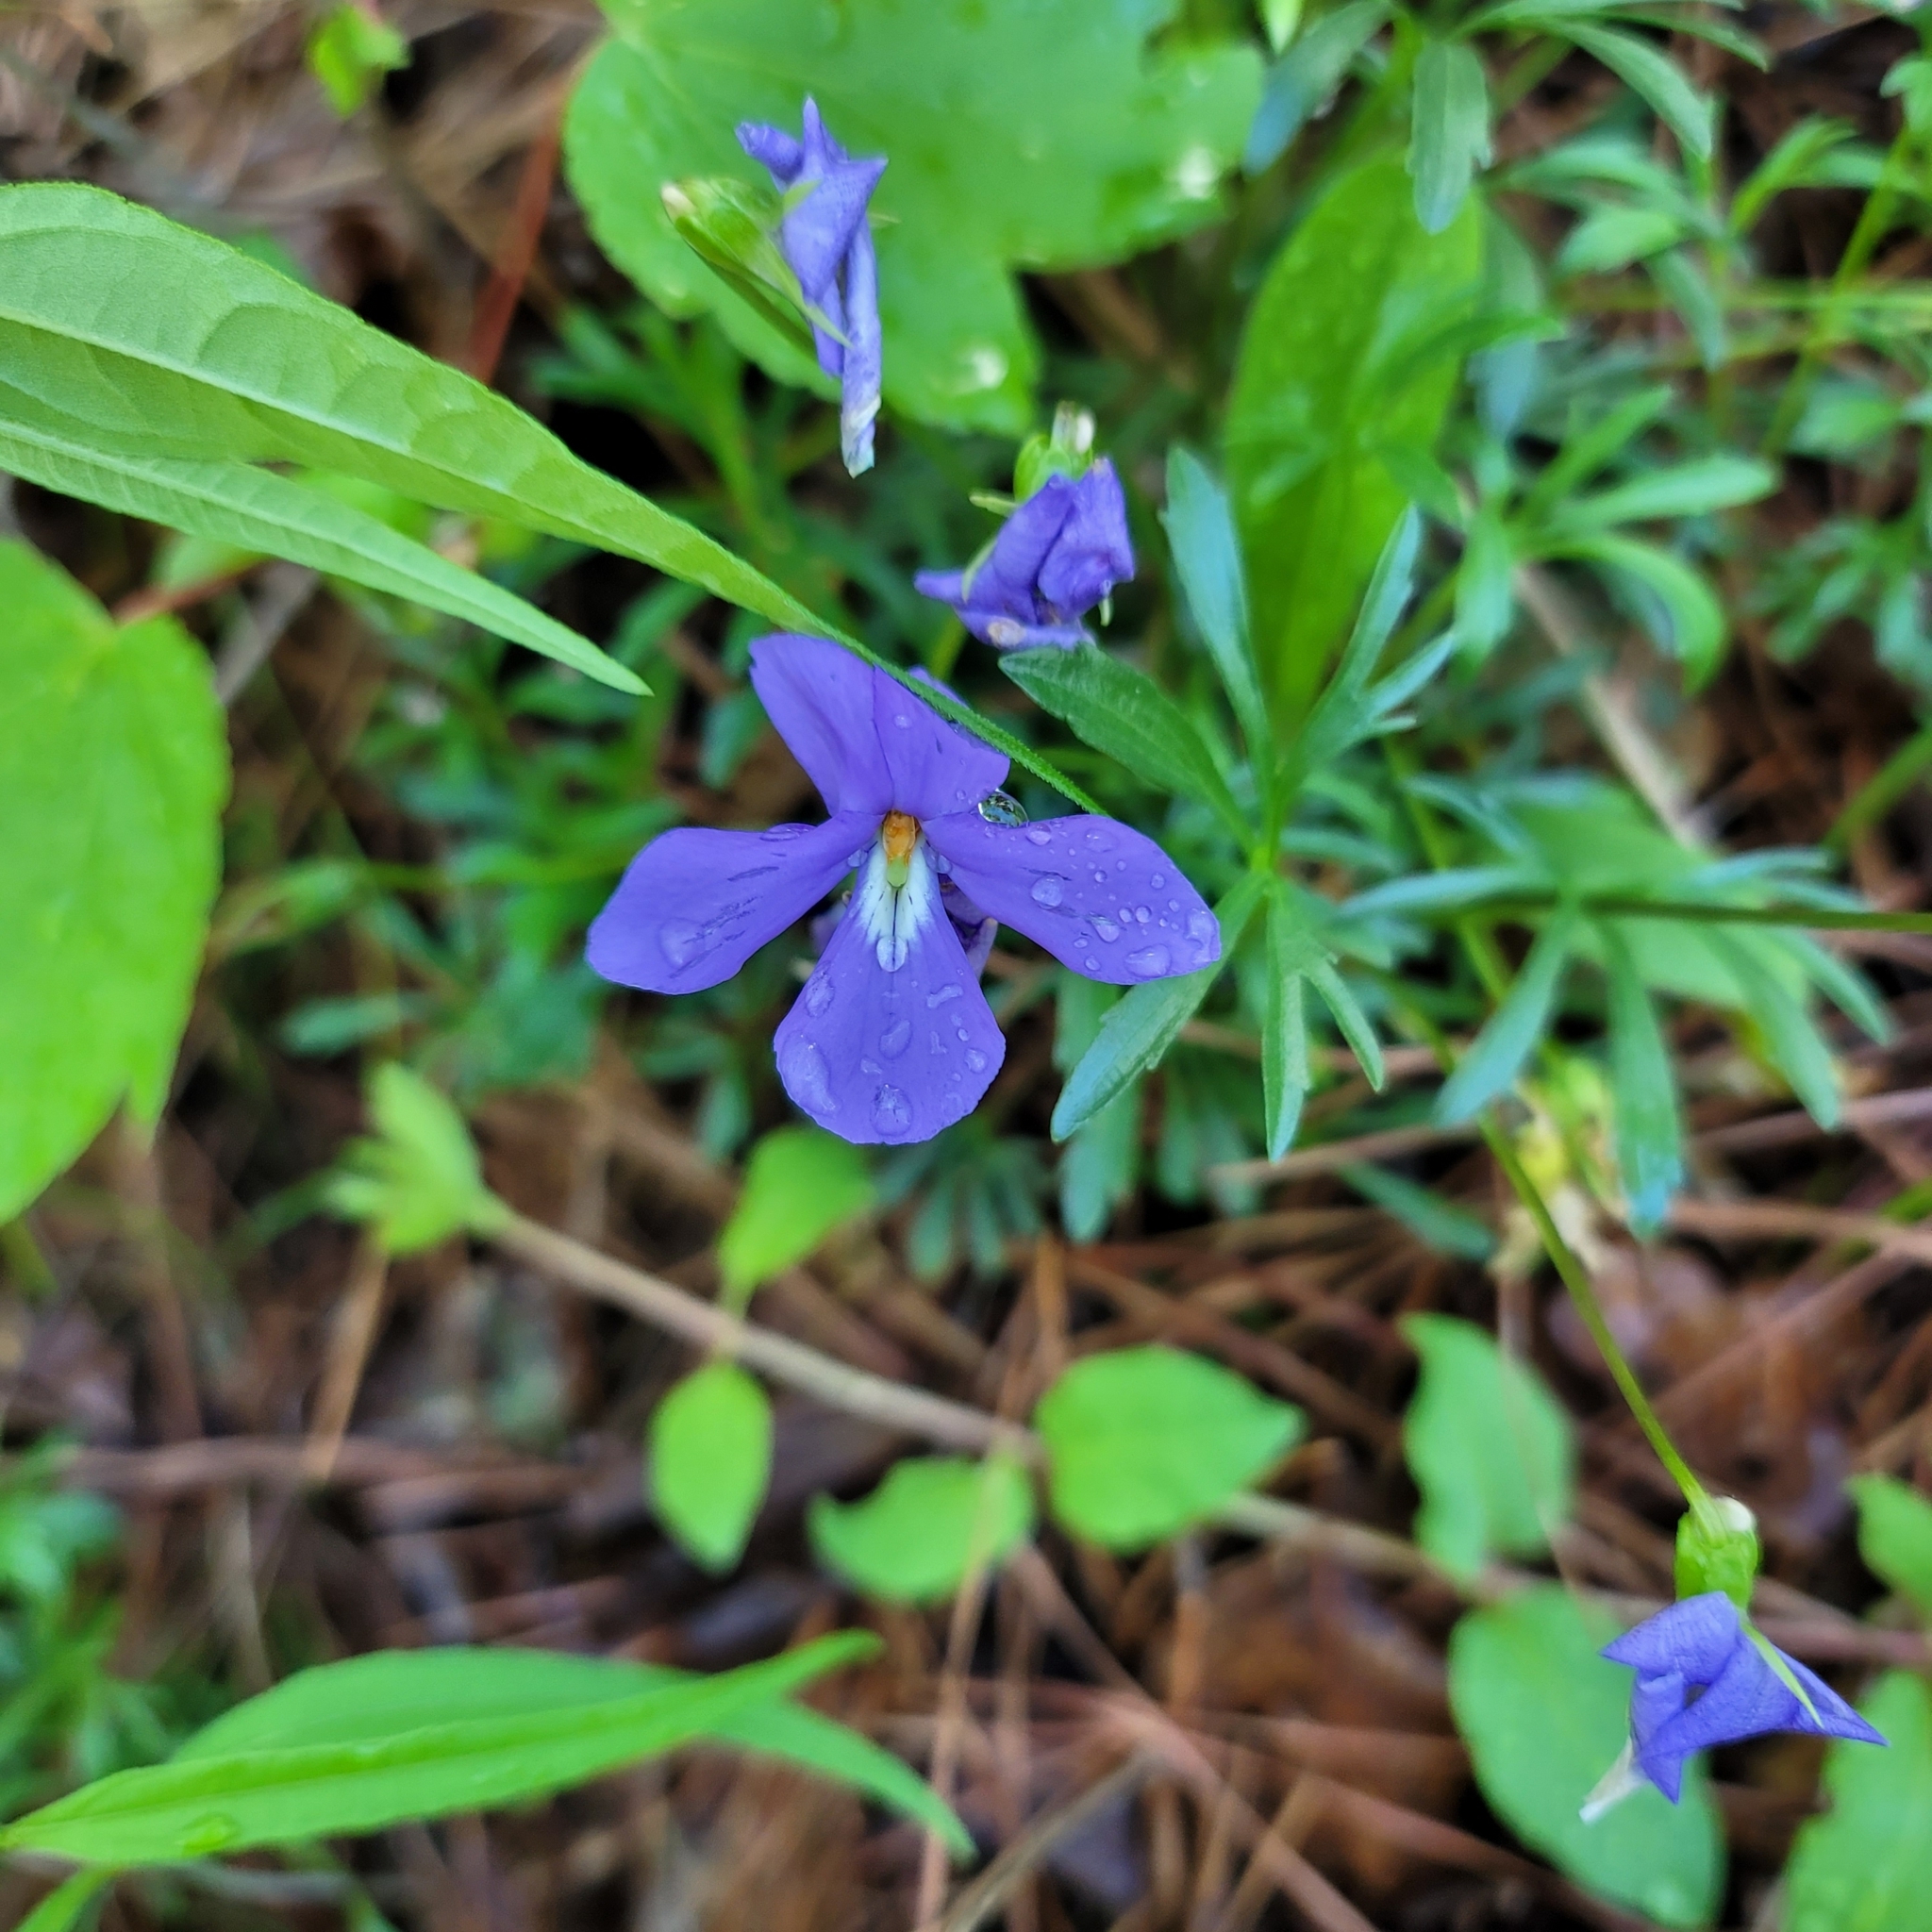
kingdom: Plantae
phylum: Tracheophyta
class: Magnoliopsida
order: Malpighiales
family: Violaceae
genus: Viola
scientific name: Viola pedata
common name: Pansy violet
